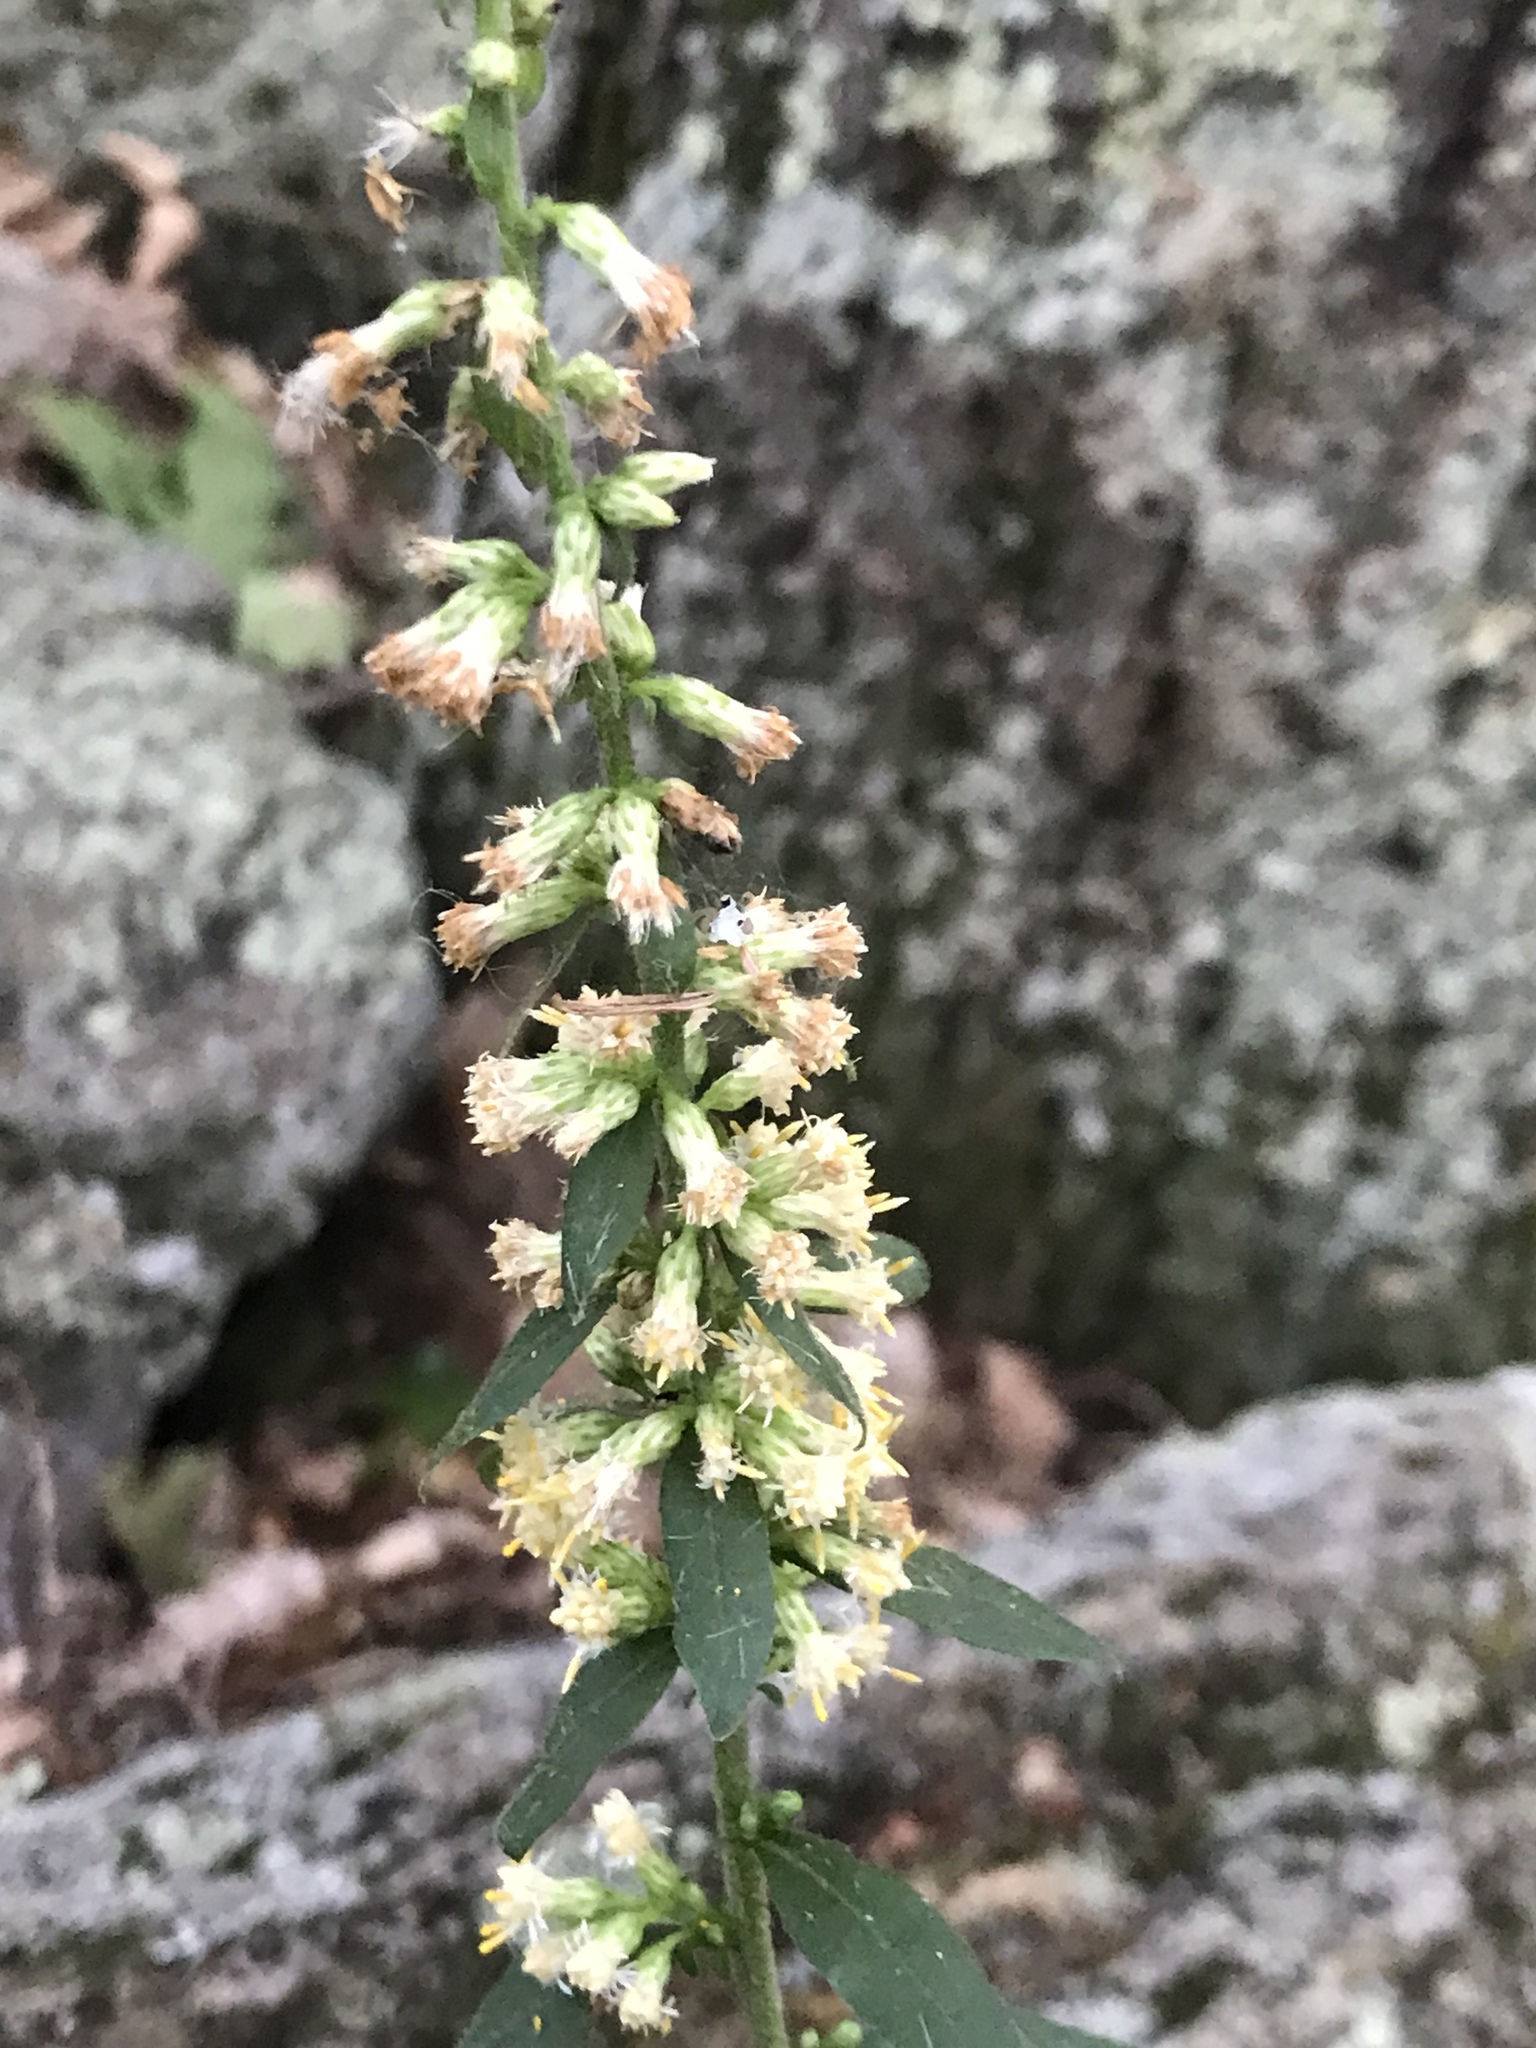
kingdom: Plantae
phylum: Tracheophyta
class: Magnoliopsida
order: Asterales
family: Asteraceae
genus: Solidago
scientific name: Solidago bicolor
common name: Silverrod
